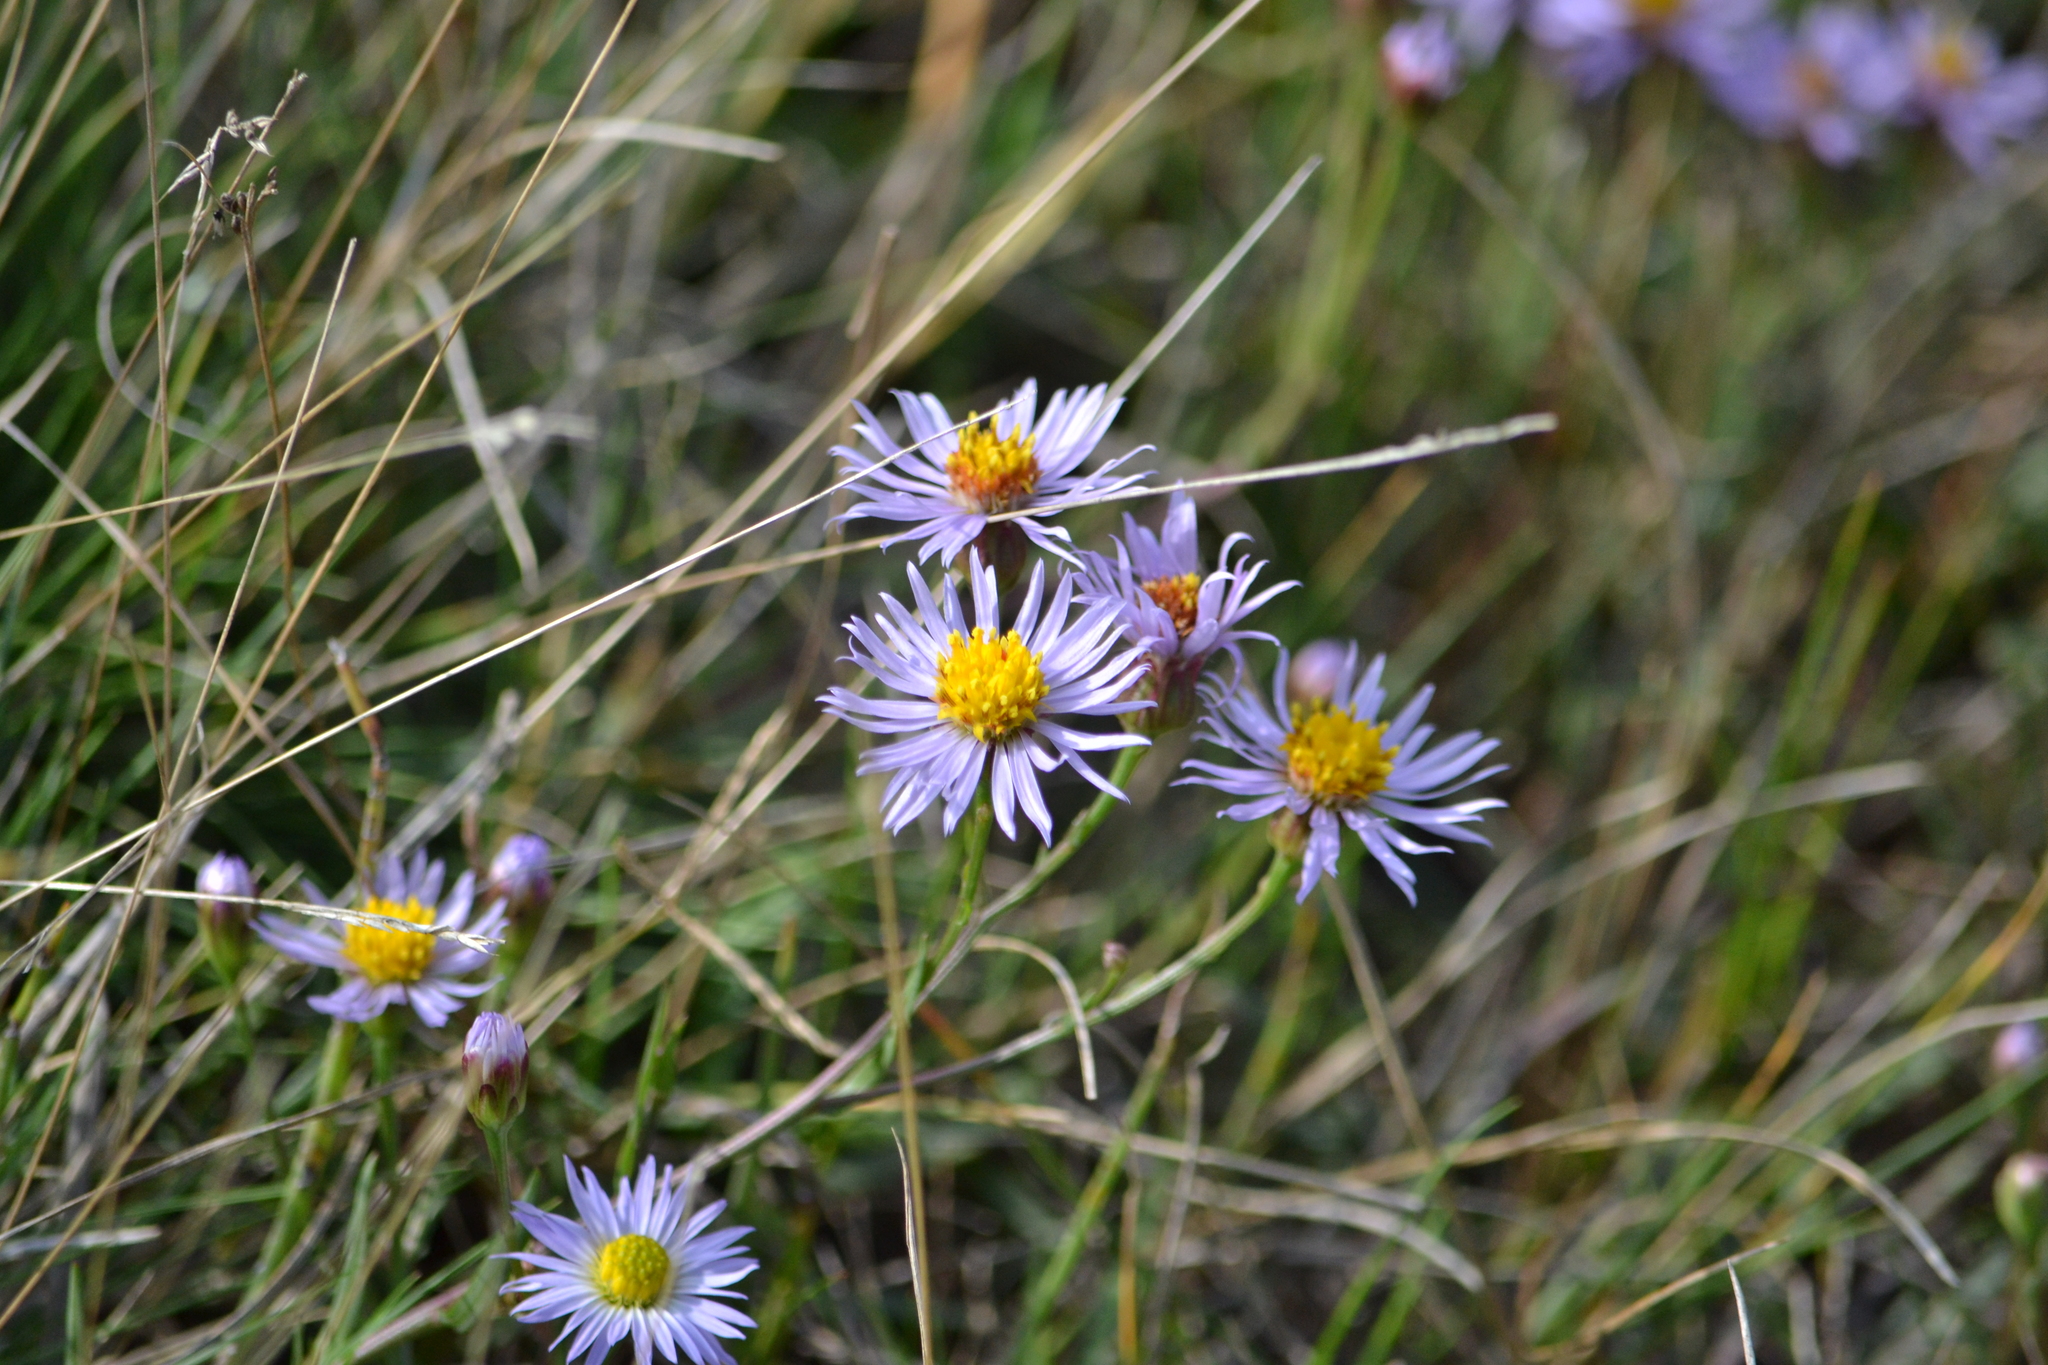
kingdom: Plantae
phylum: Tracheophyta
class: Magnoliopsida
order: Asterales
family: Asteraceae
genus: Tripolium
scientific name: Tripolium pannonicum
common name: Sea aster
